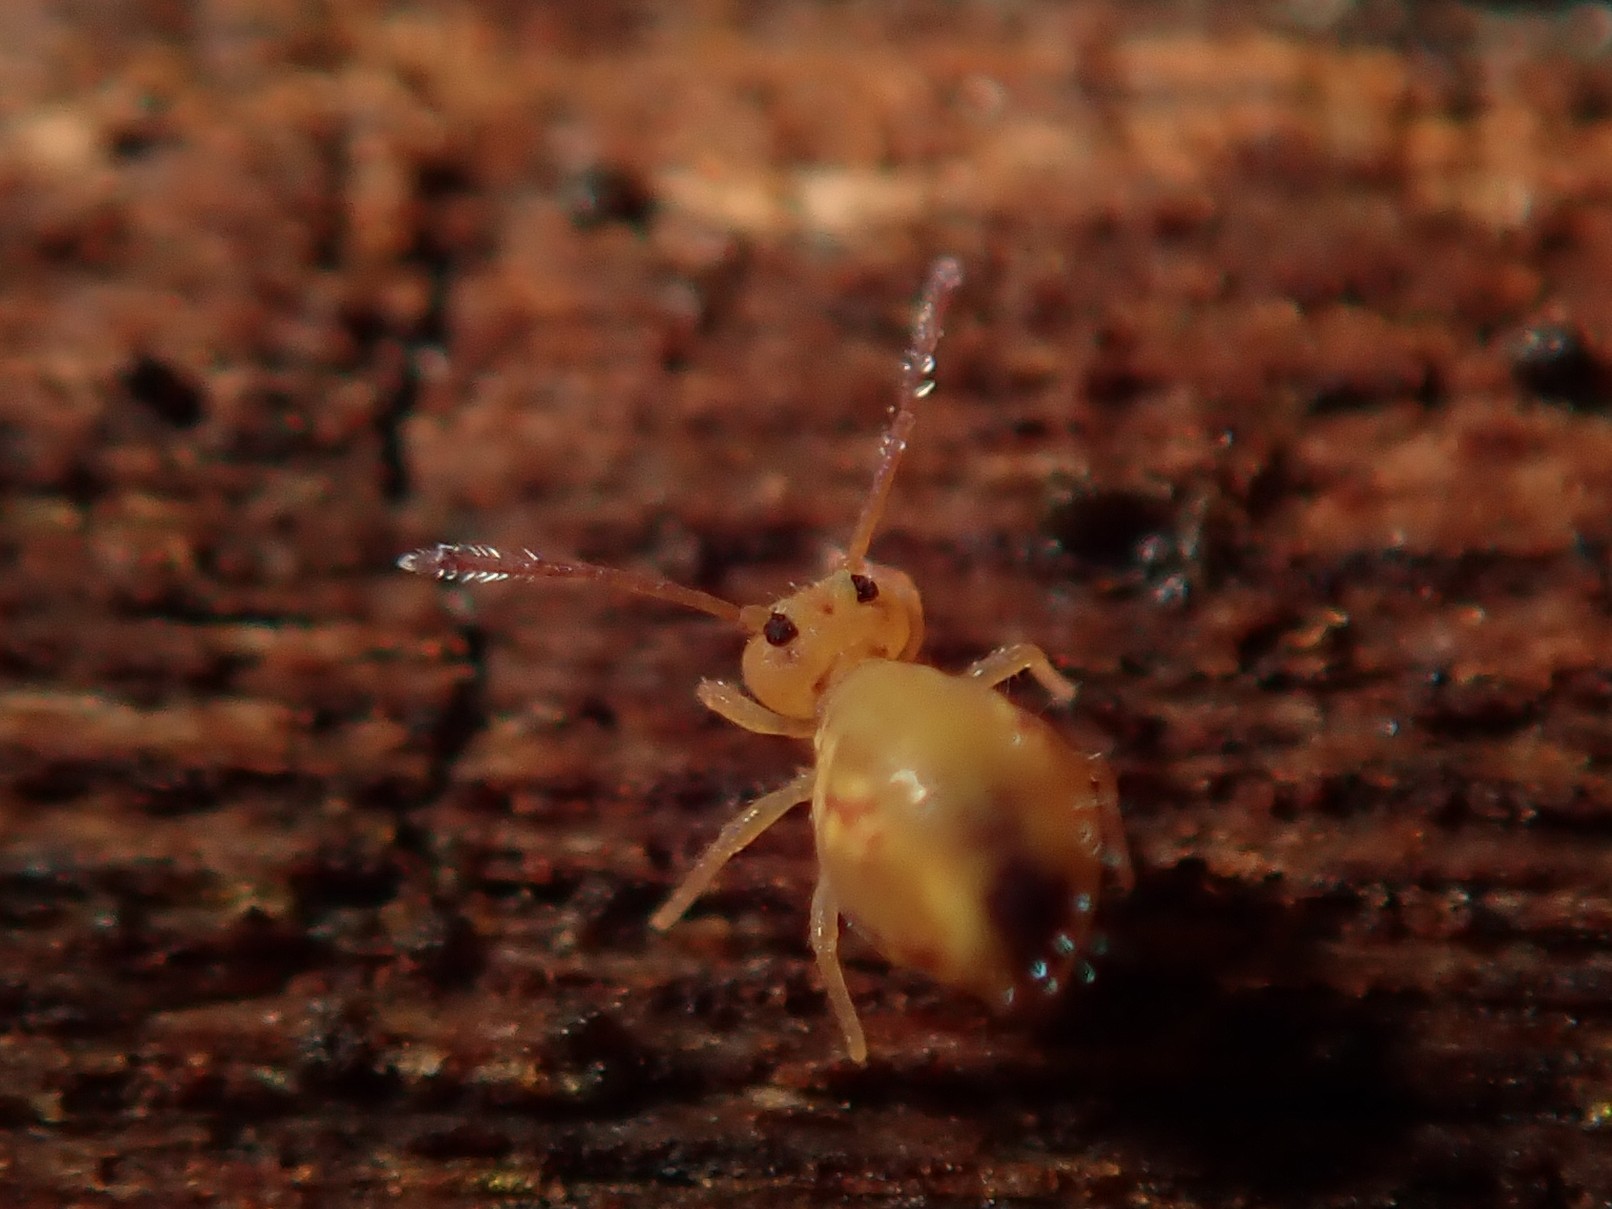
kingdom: Animalia
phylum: Arthropoda
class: Collembola
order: Symphypleona
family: Dicyrtomidae
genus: Dicyrtomina
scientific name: Dicyrtomina ornata
